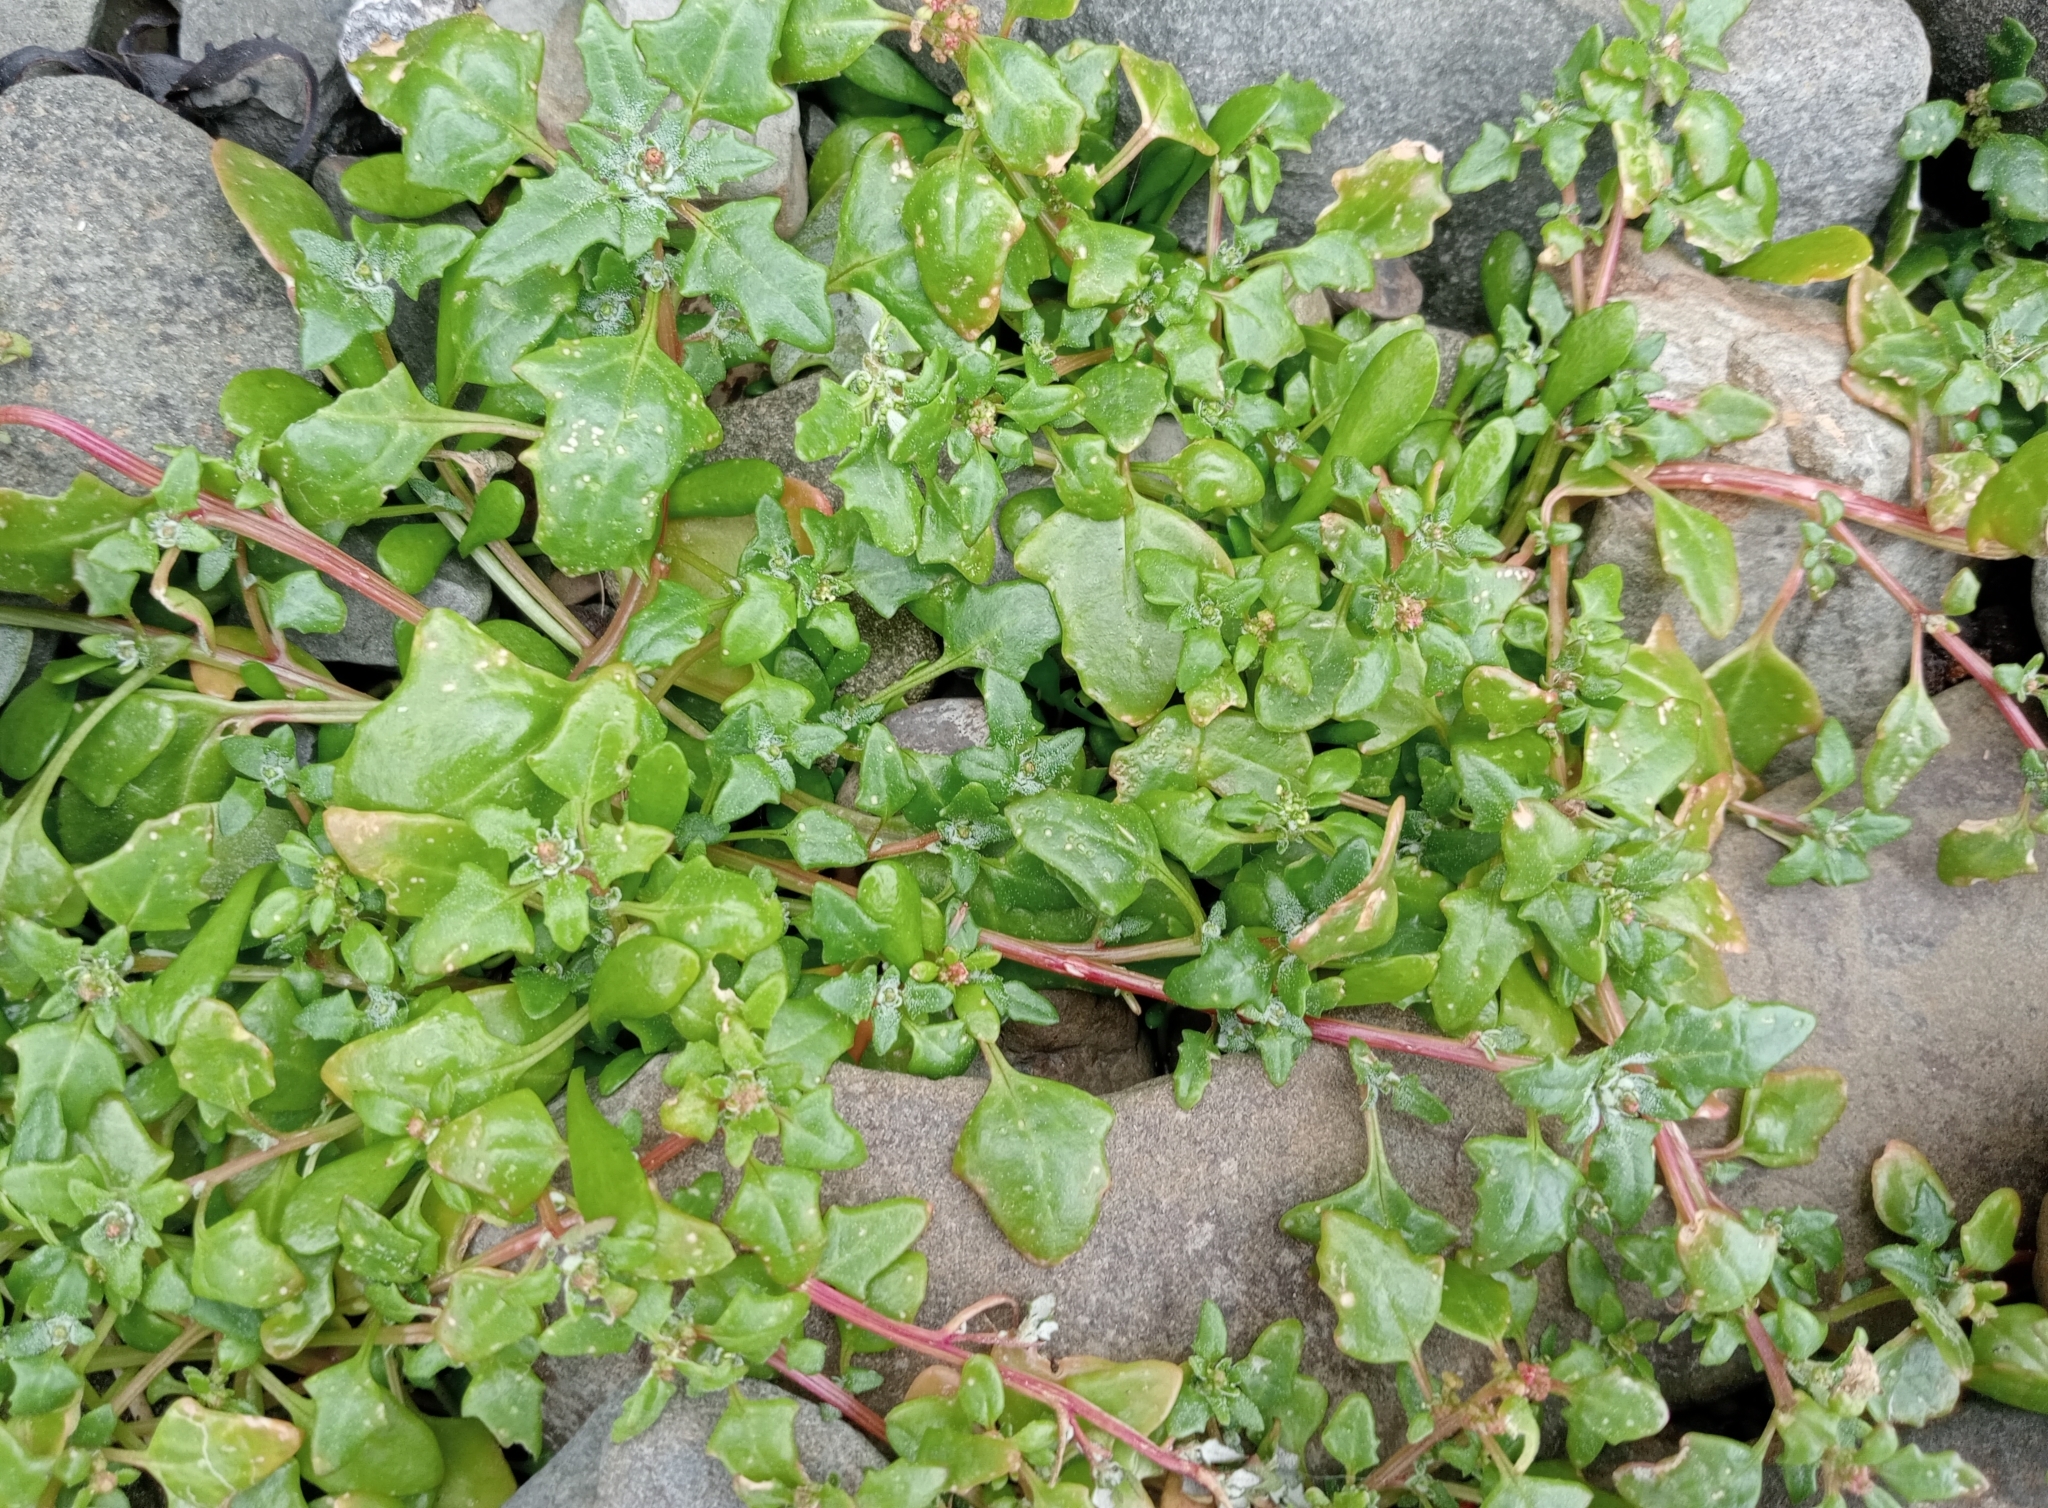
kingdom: Plantae
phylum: Tracheophyta
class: Magnoliopsida
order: Caryophyllales
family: Amaranthaceae
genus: Oxybasis
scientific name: Oxybasis ambigua
